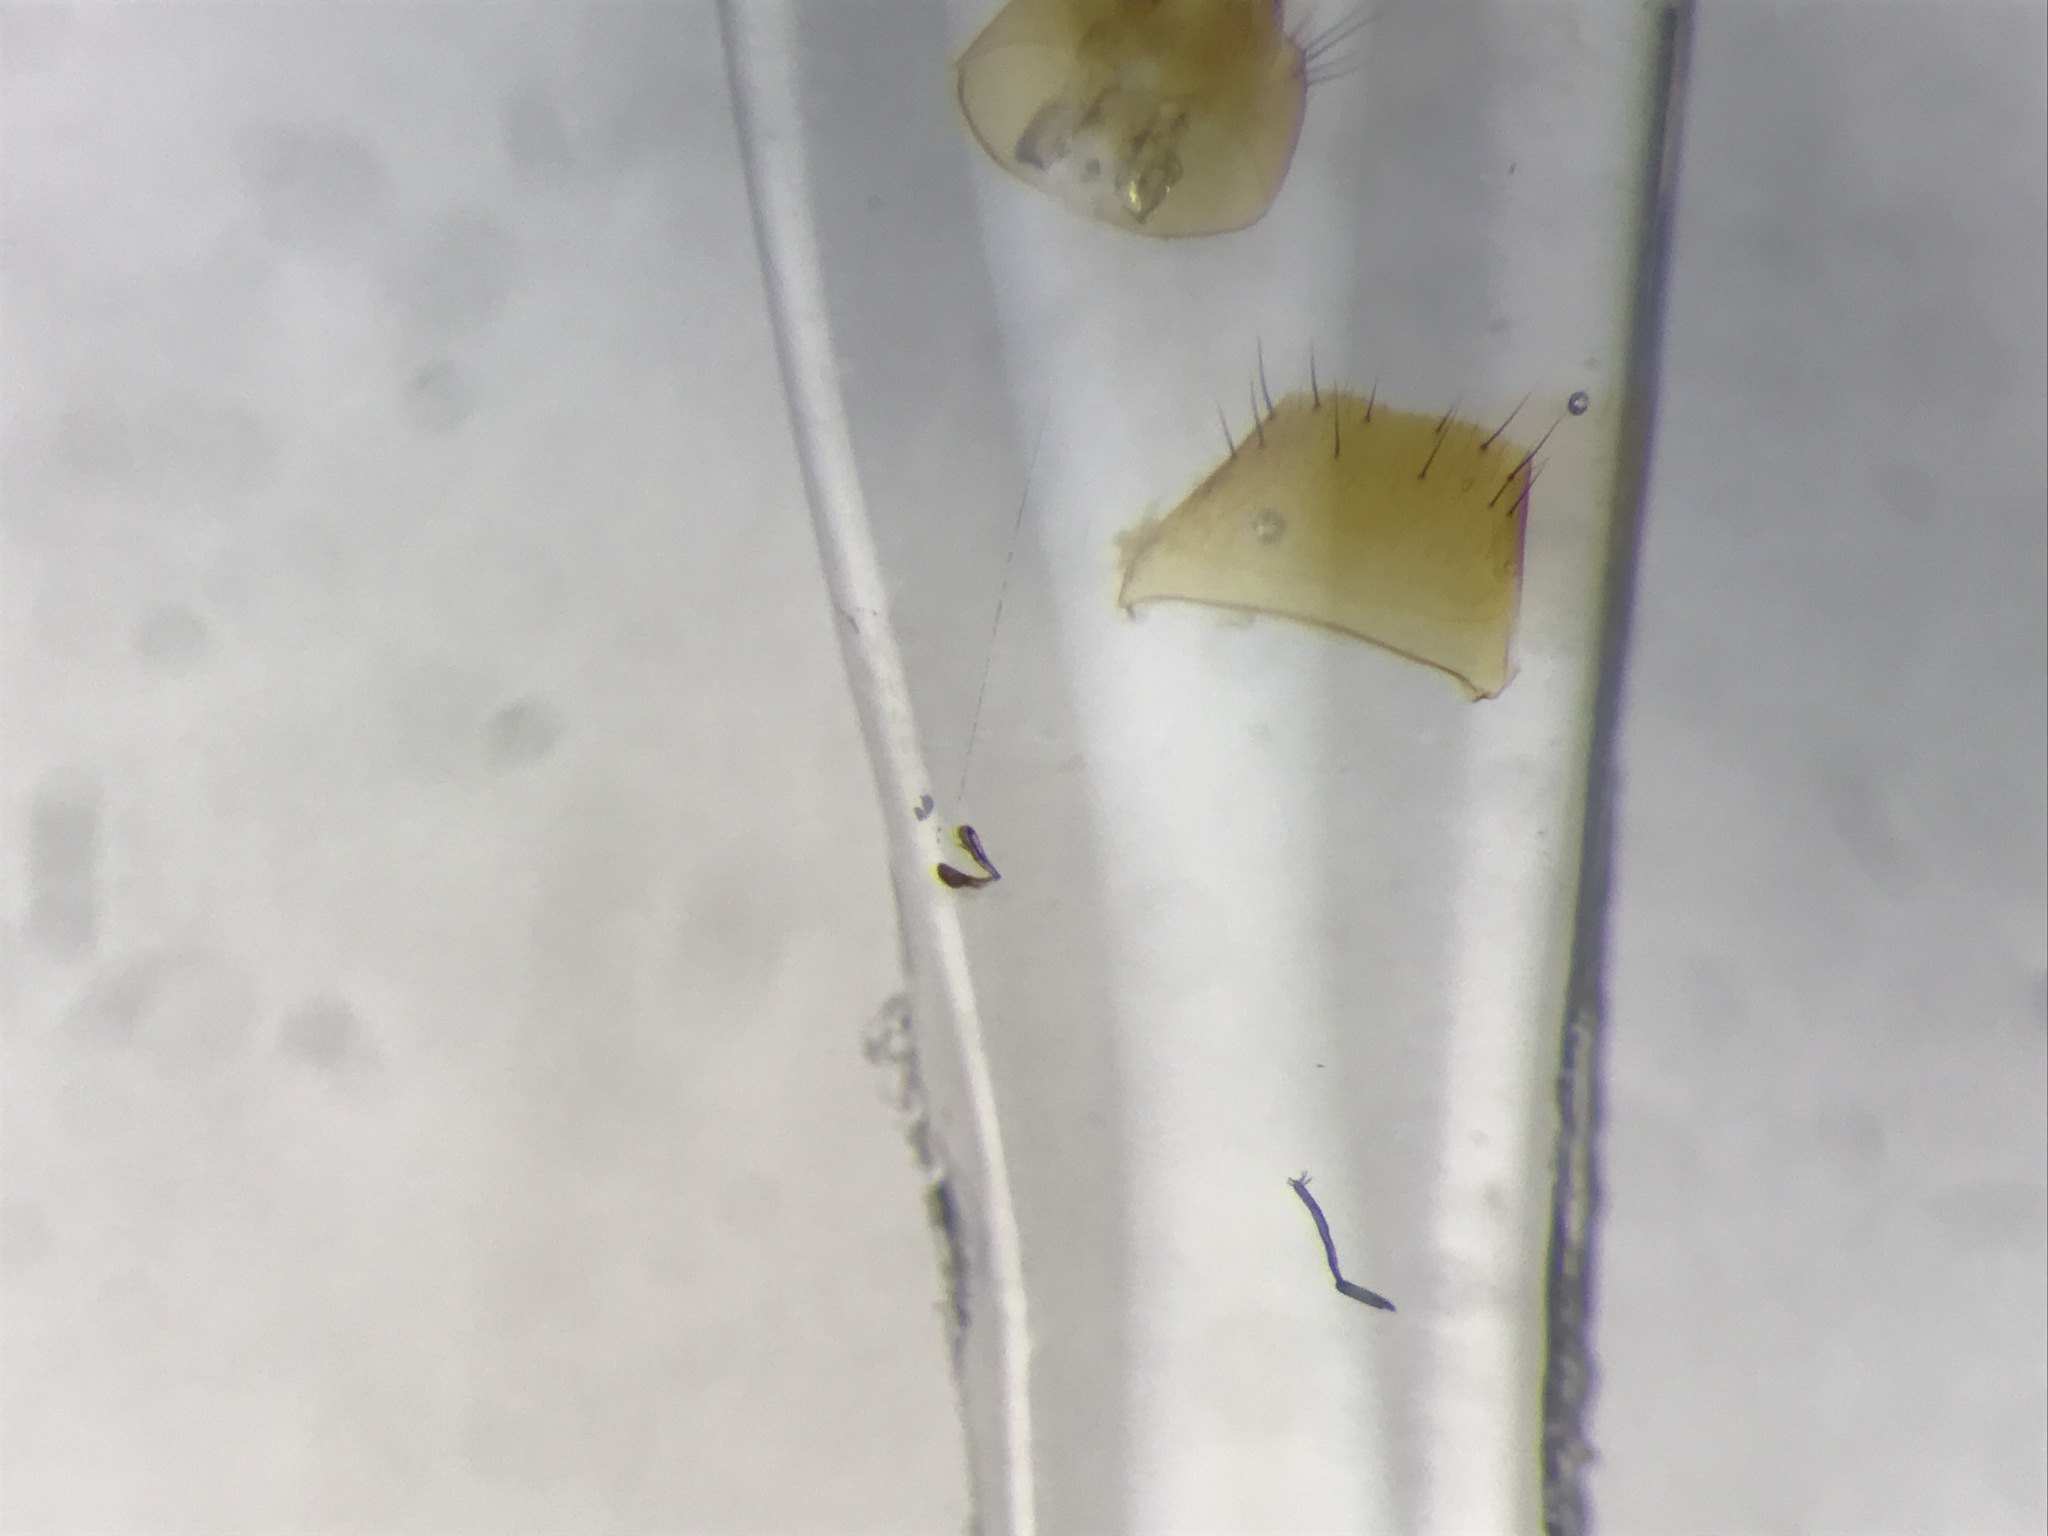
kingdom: Animalia
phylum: Arthropoda
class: Insecta
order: Coleoptera
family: Staphylinidae
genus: Hoplandria
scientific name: Hoplandria laevicollis
